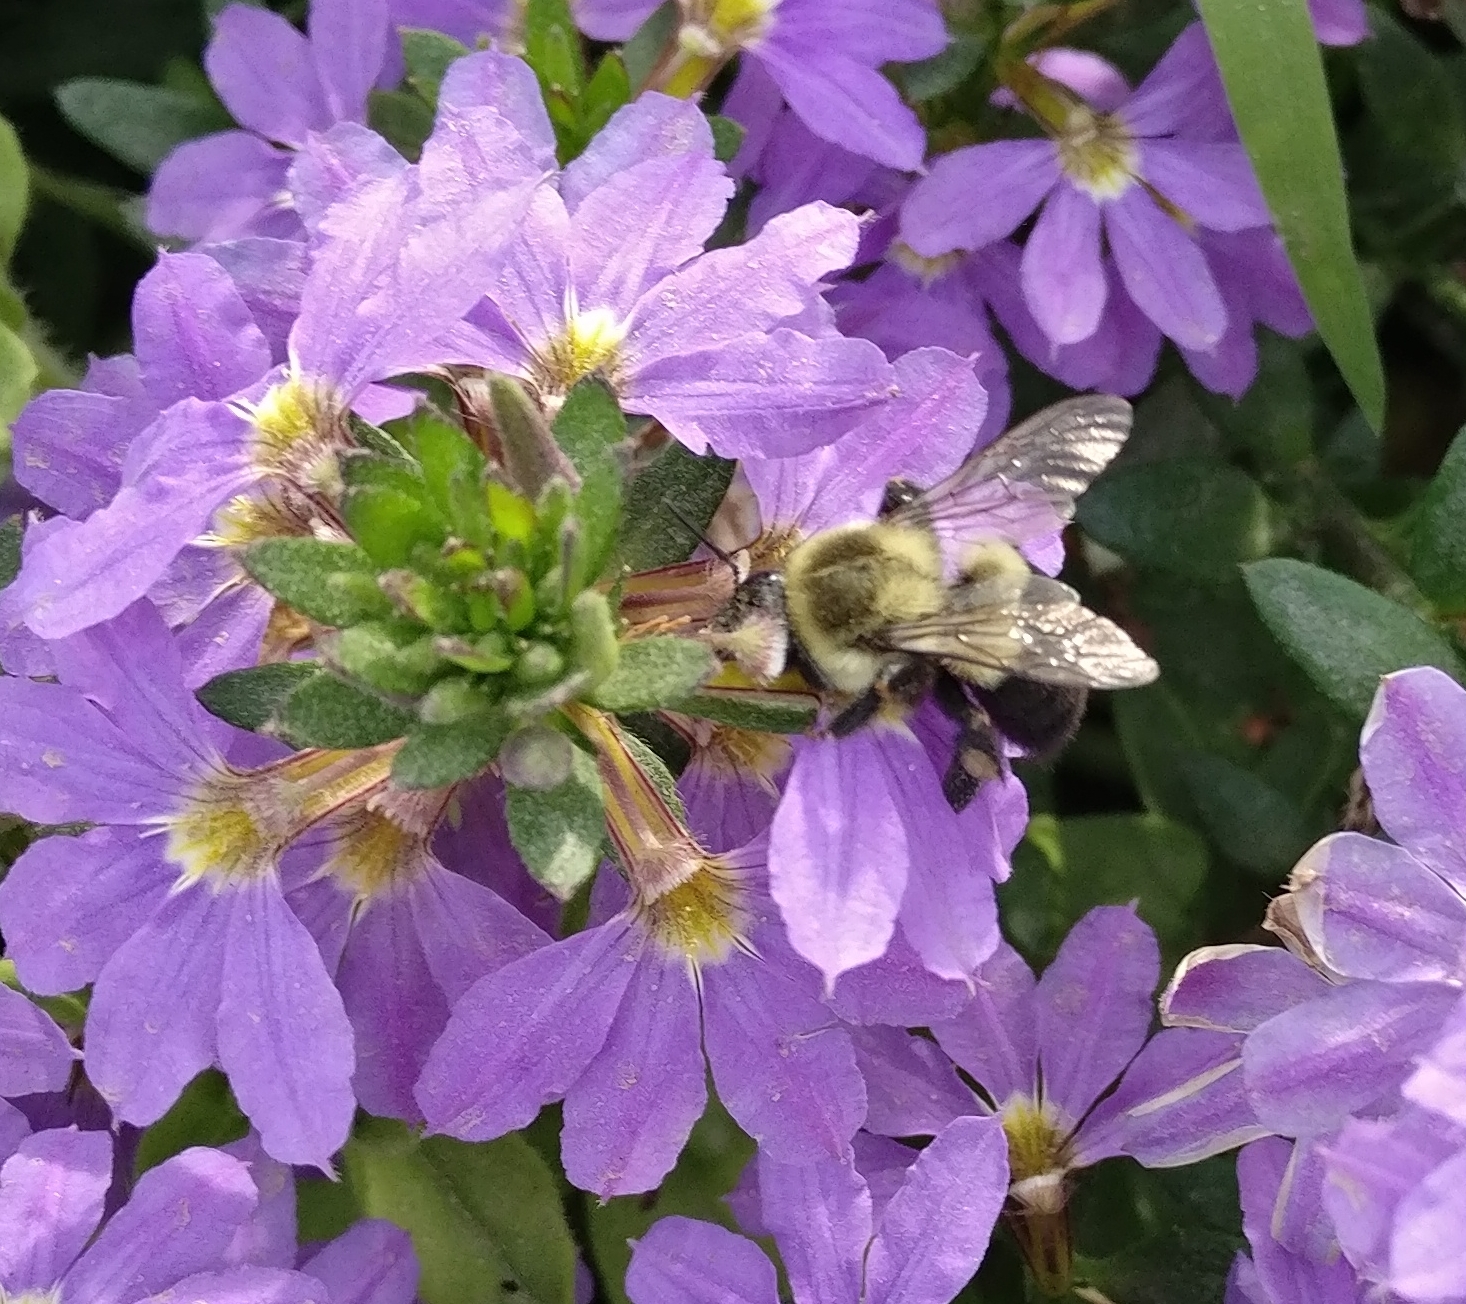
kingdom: Animalia
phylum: Arthropoda
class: Insecta
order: Hymenoptera
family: Apidae
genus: Bombus
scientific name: Bombus impatiens
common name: Common eastern bumble bee
